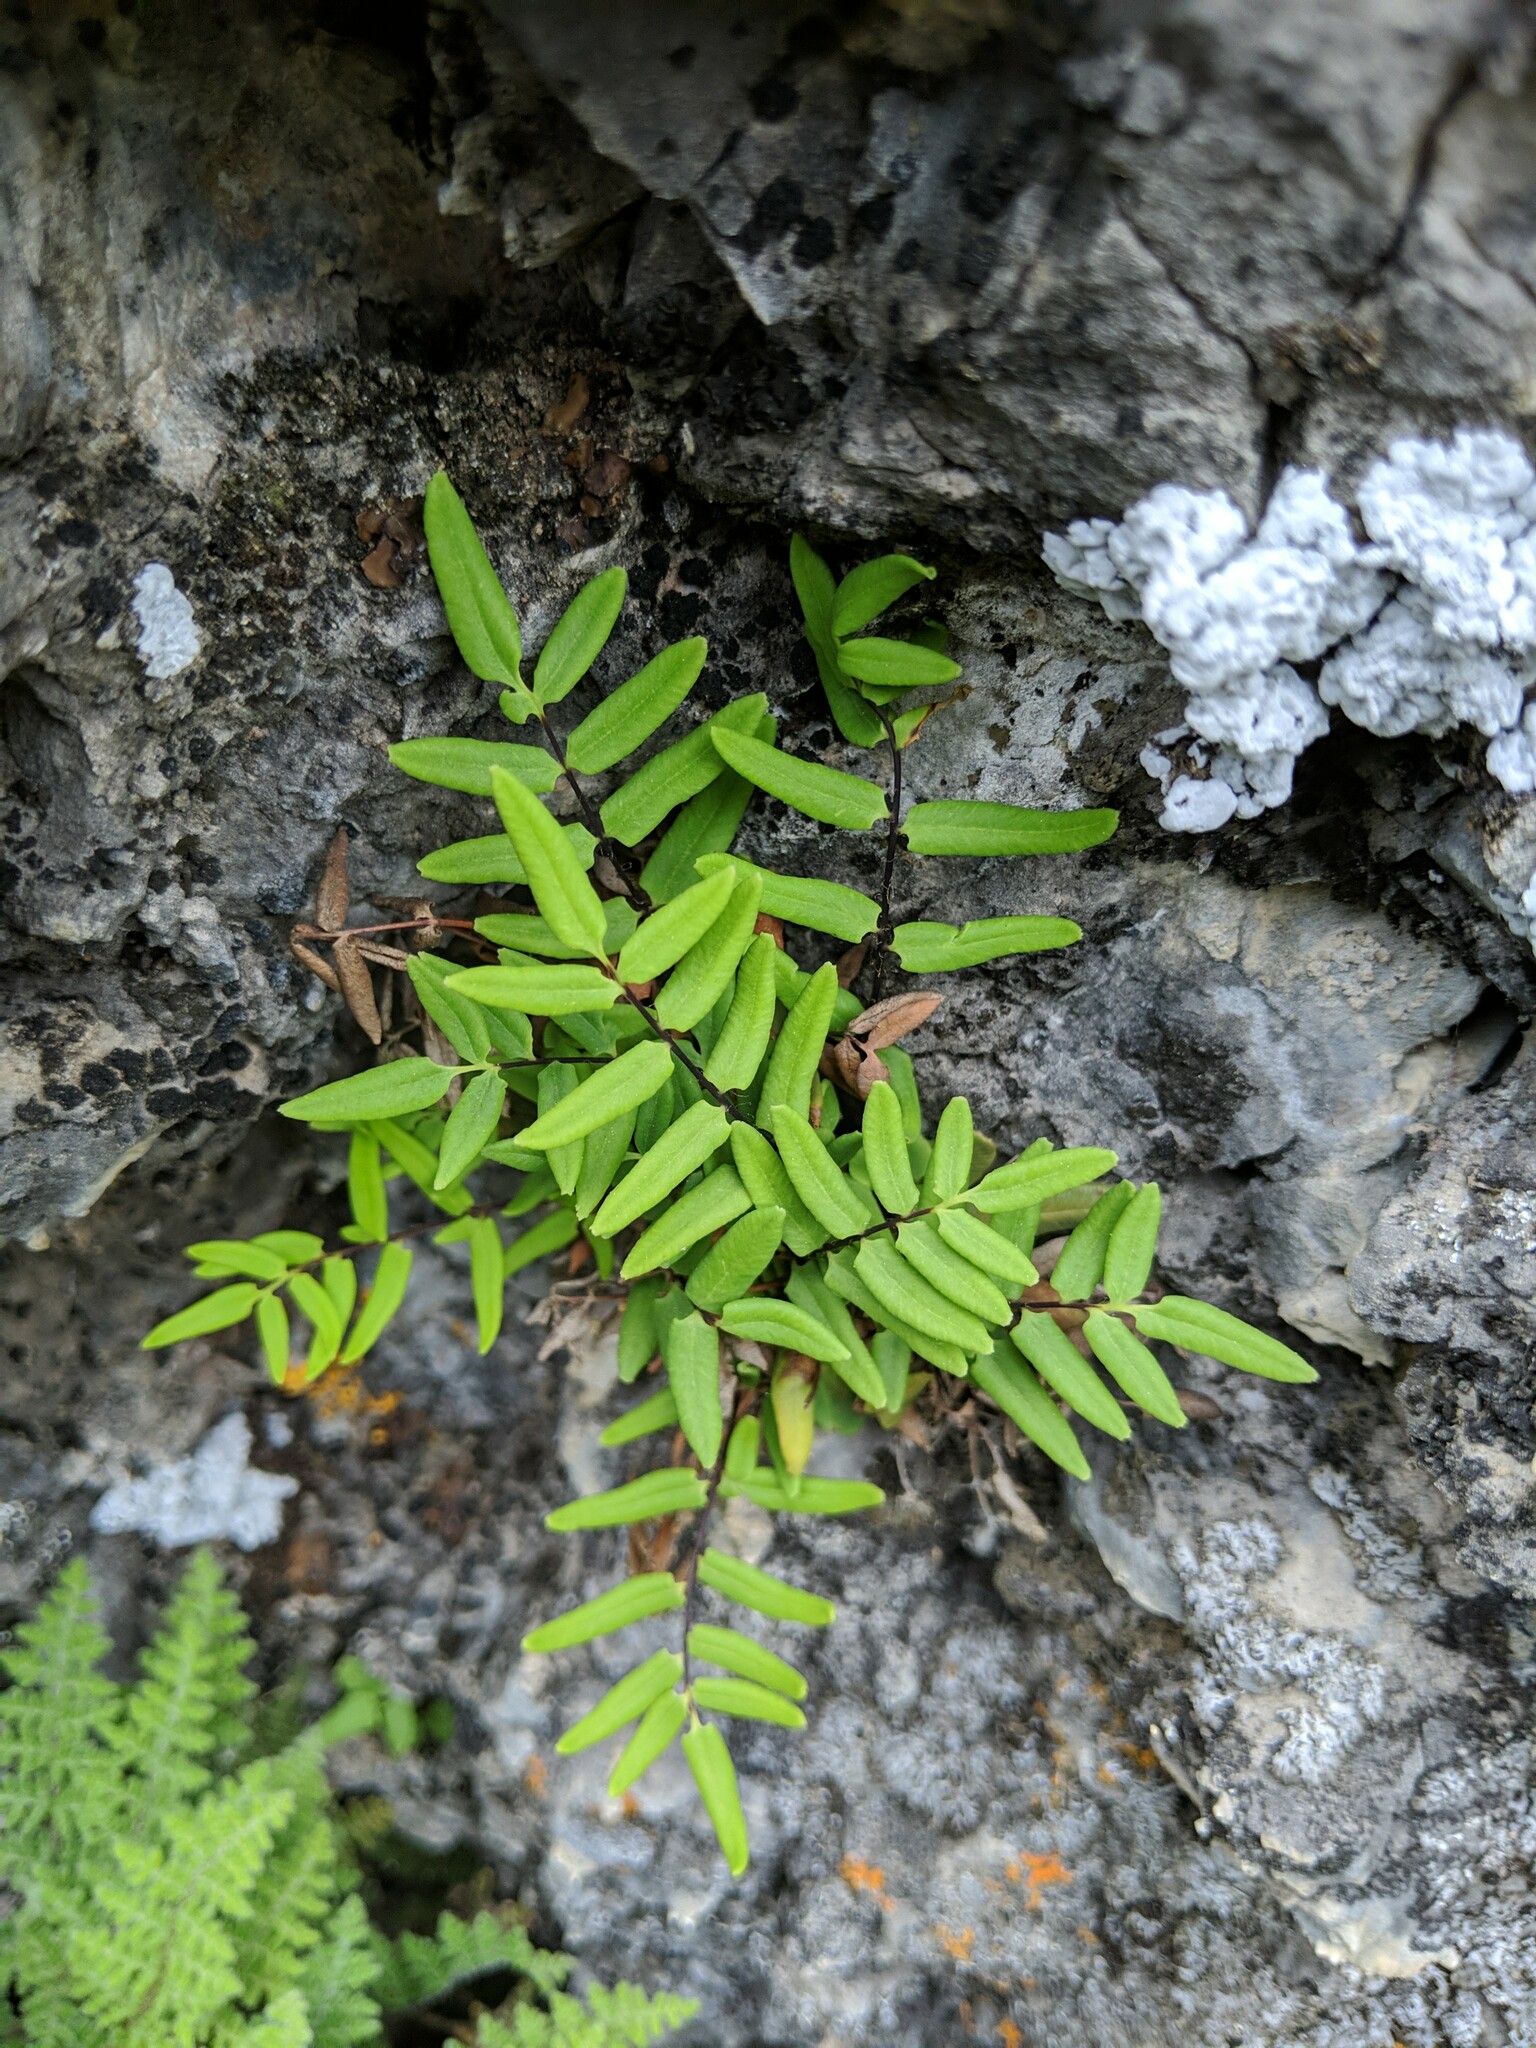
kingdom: Plantae
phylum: Tracheophyta
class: Polypodiopsida
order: Polypodiales
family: Pteridaceae
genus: Pellaea
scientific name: Pellaea glabella
